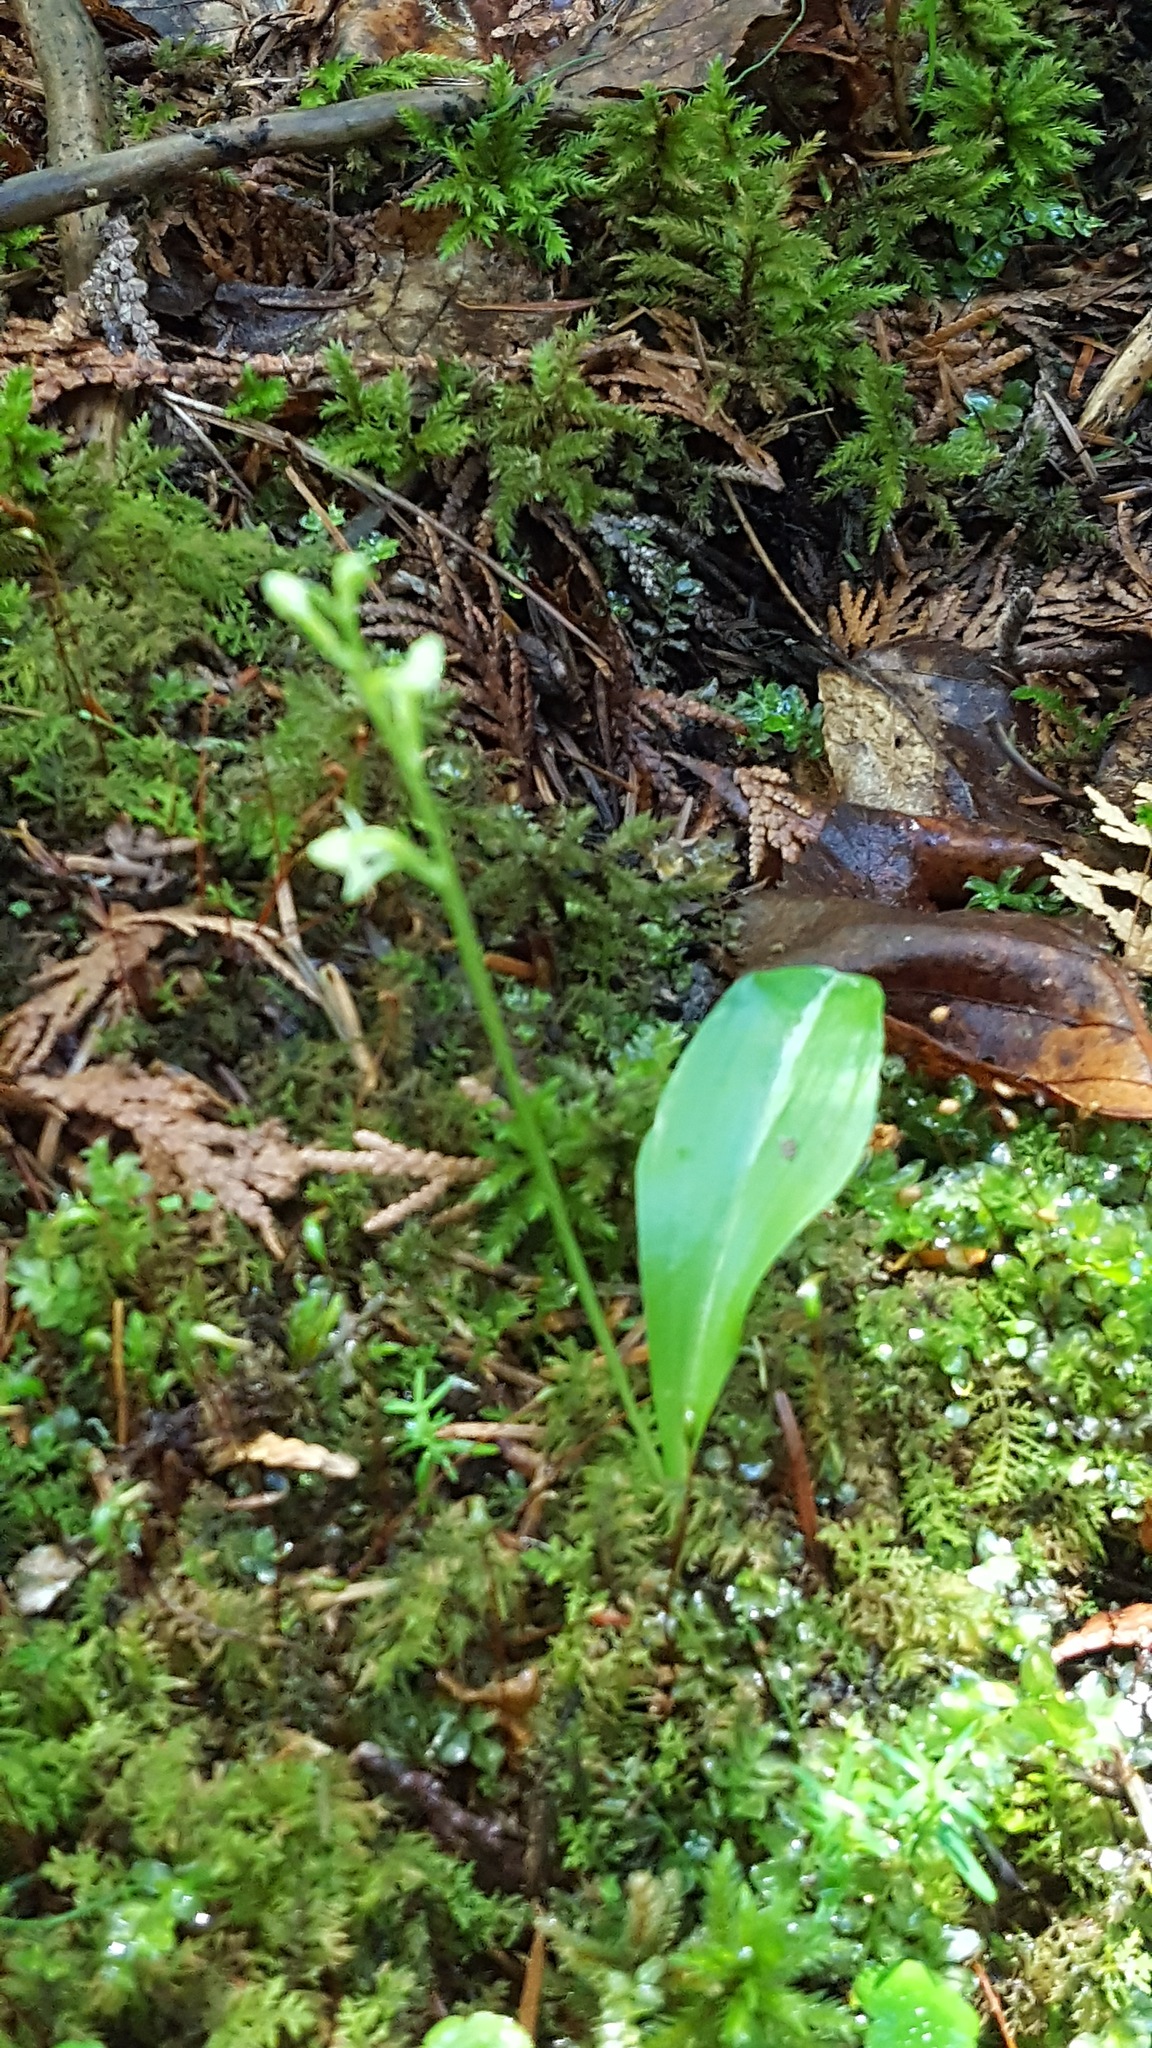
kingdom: Plantae
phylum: Tracheophyta
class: Liliopsida
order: Asparagales
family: Orchidaceae
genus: Platanthera
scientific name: Platanthera obtusata
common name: Blunt bog orchid
